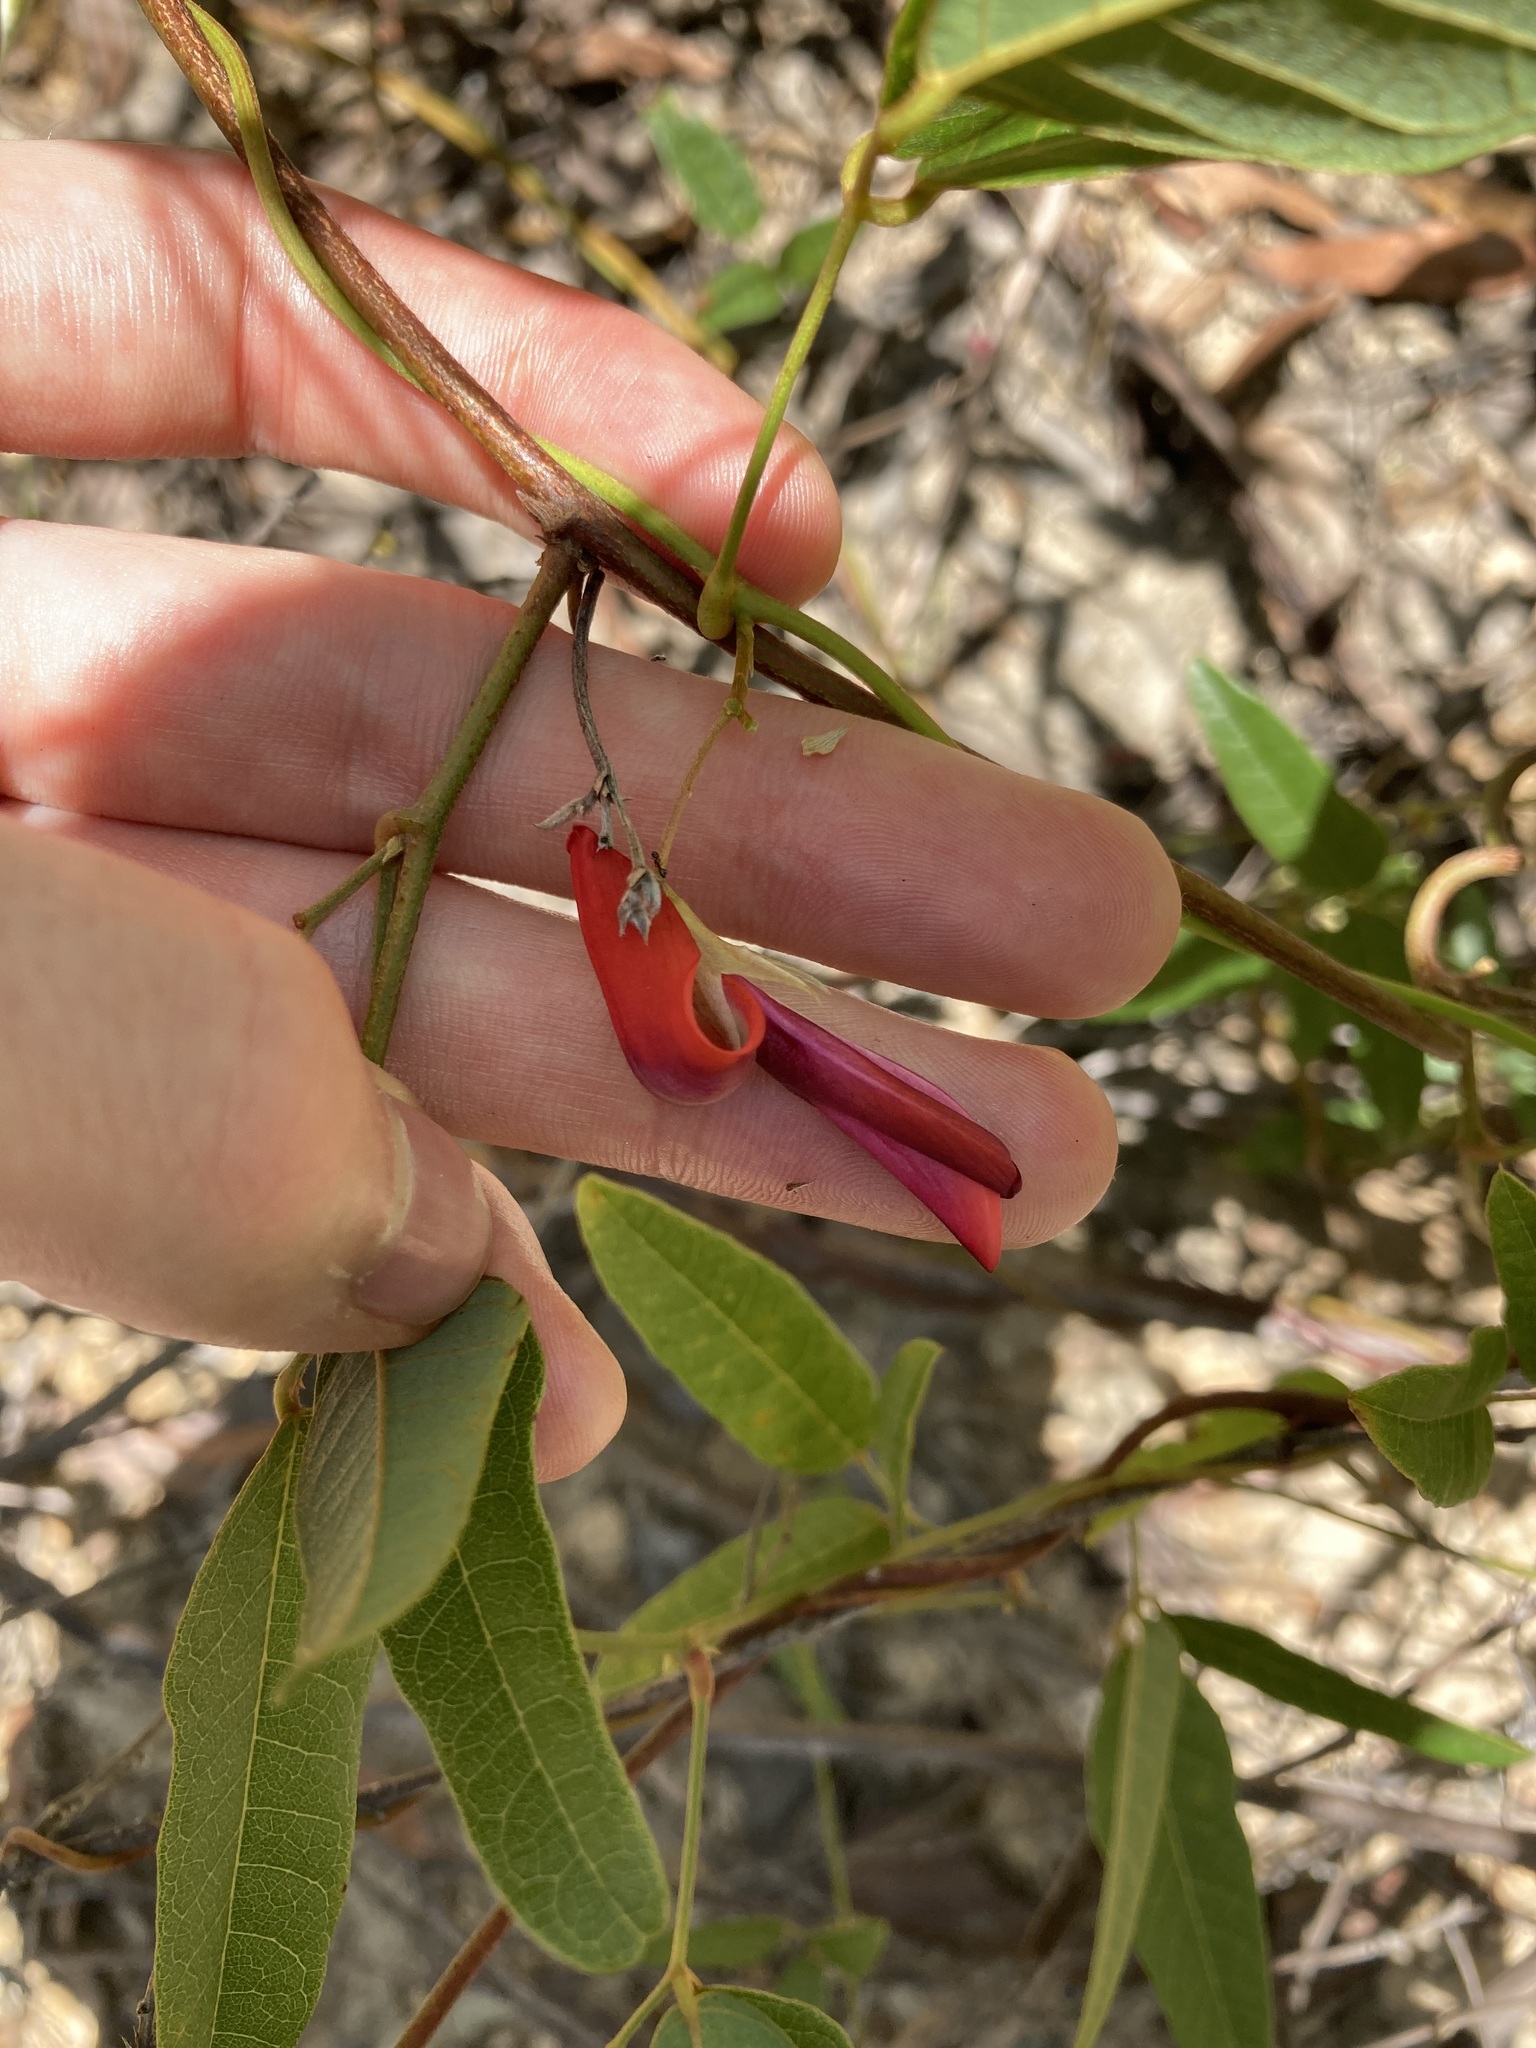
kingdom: Plantae
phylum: Tracheophyta
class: Magnoliopsida
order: Fabales
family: Fabaceae
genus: Kennedia
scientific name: Kennedia rubicunda
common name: Red kennedy-pea
